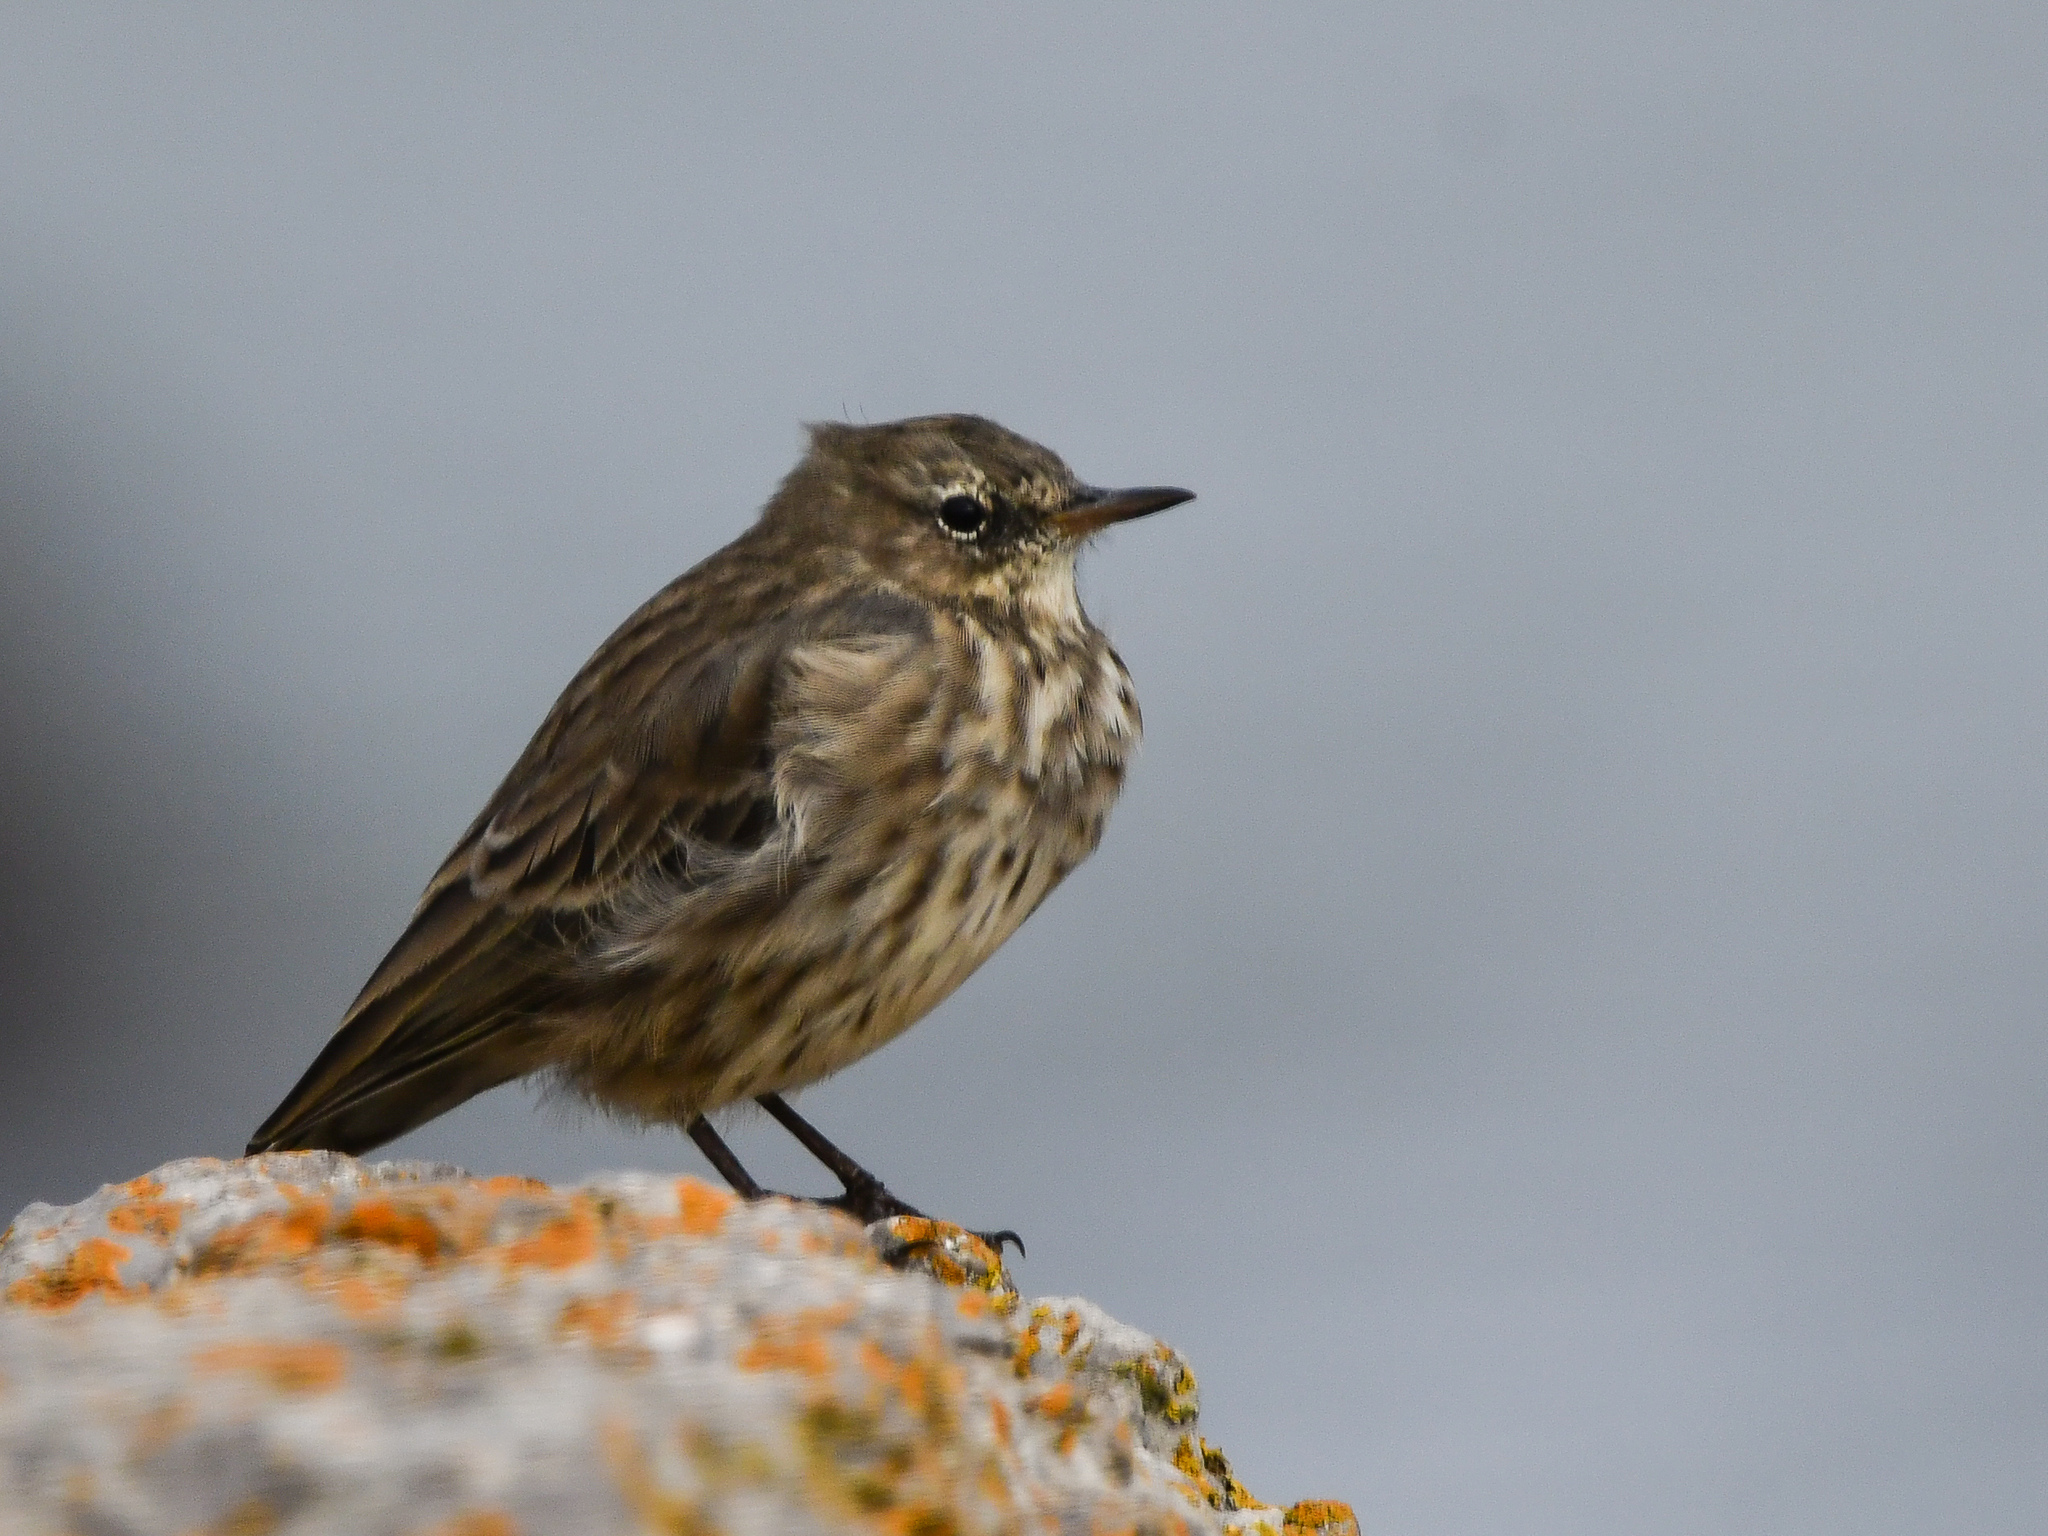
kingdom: Animalia
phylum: Chordata
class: Aves
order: Passeriformes
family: Motacillidae
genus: Anthus
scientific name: Anthus petrosus
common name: Eurasian rock pipit
